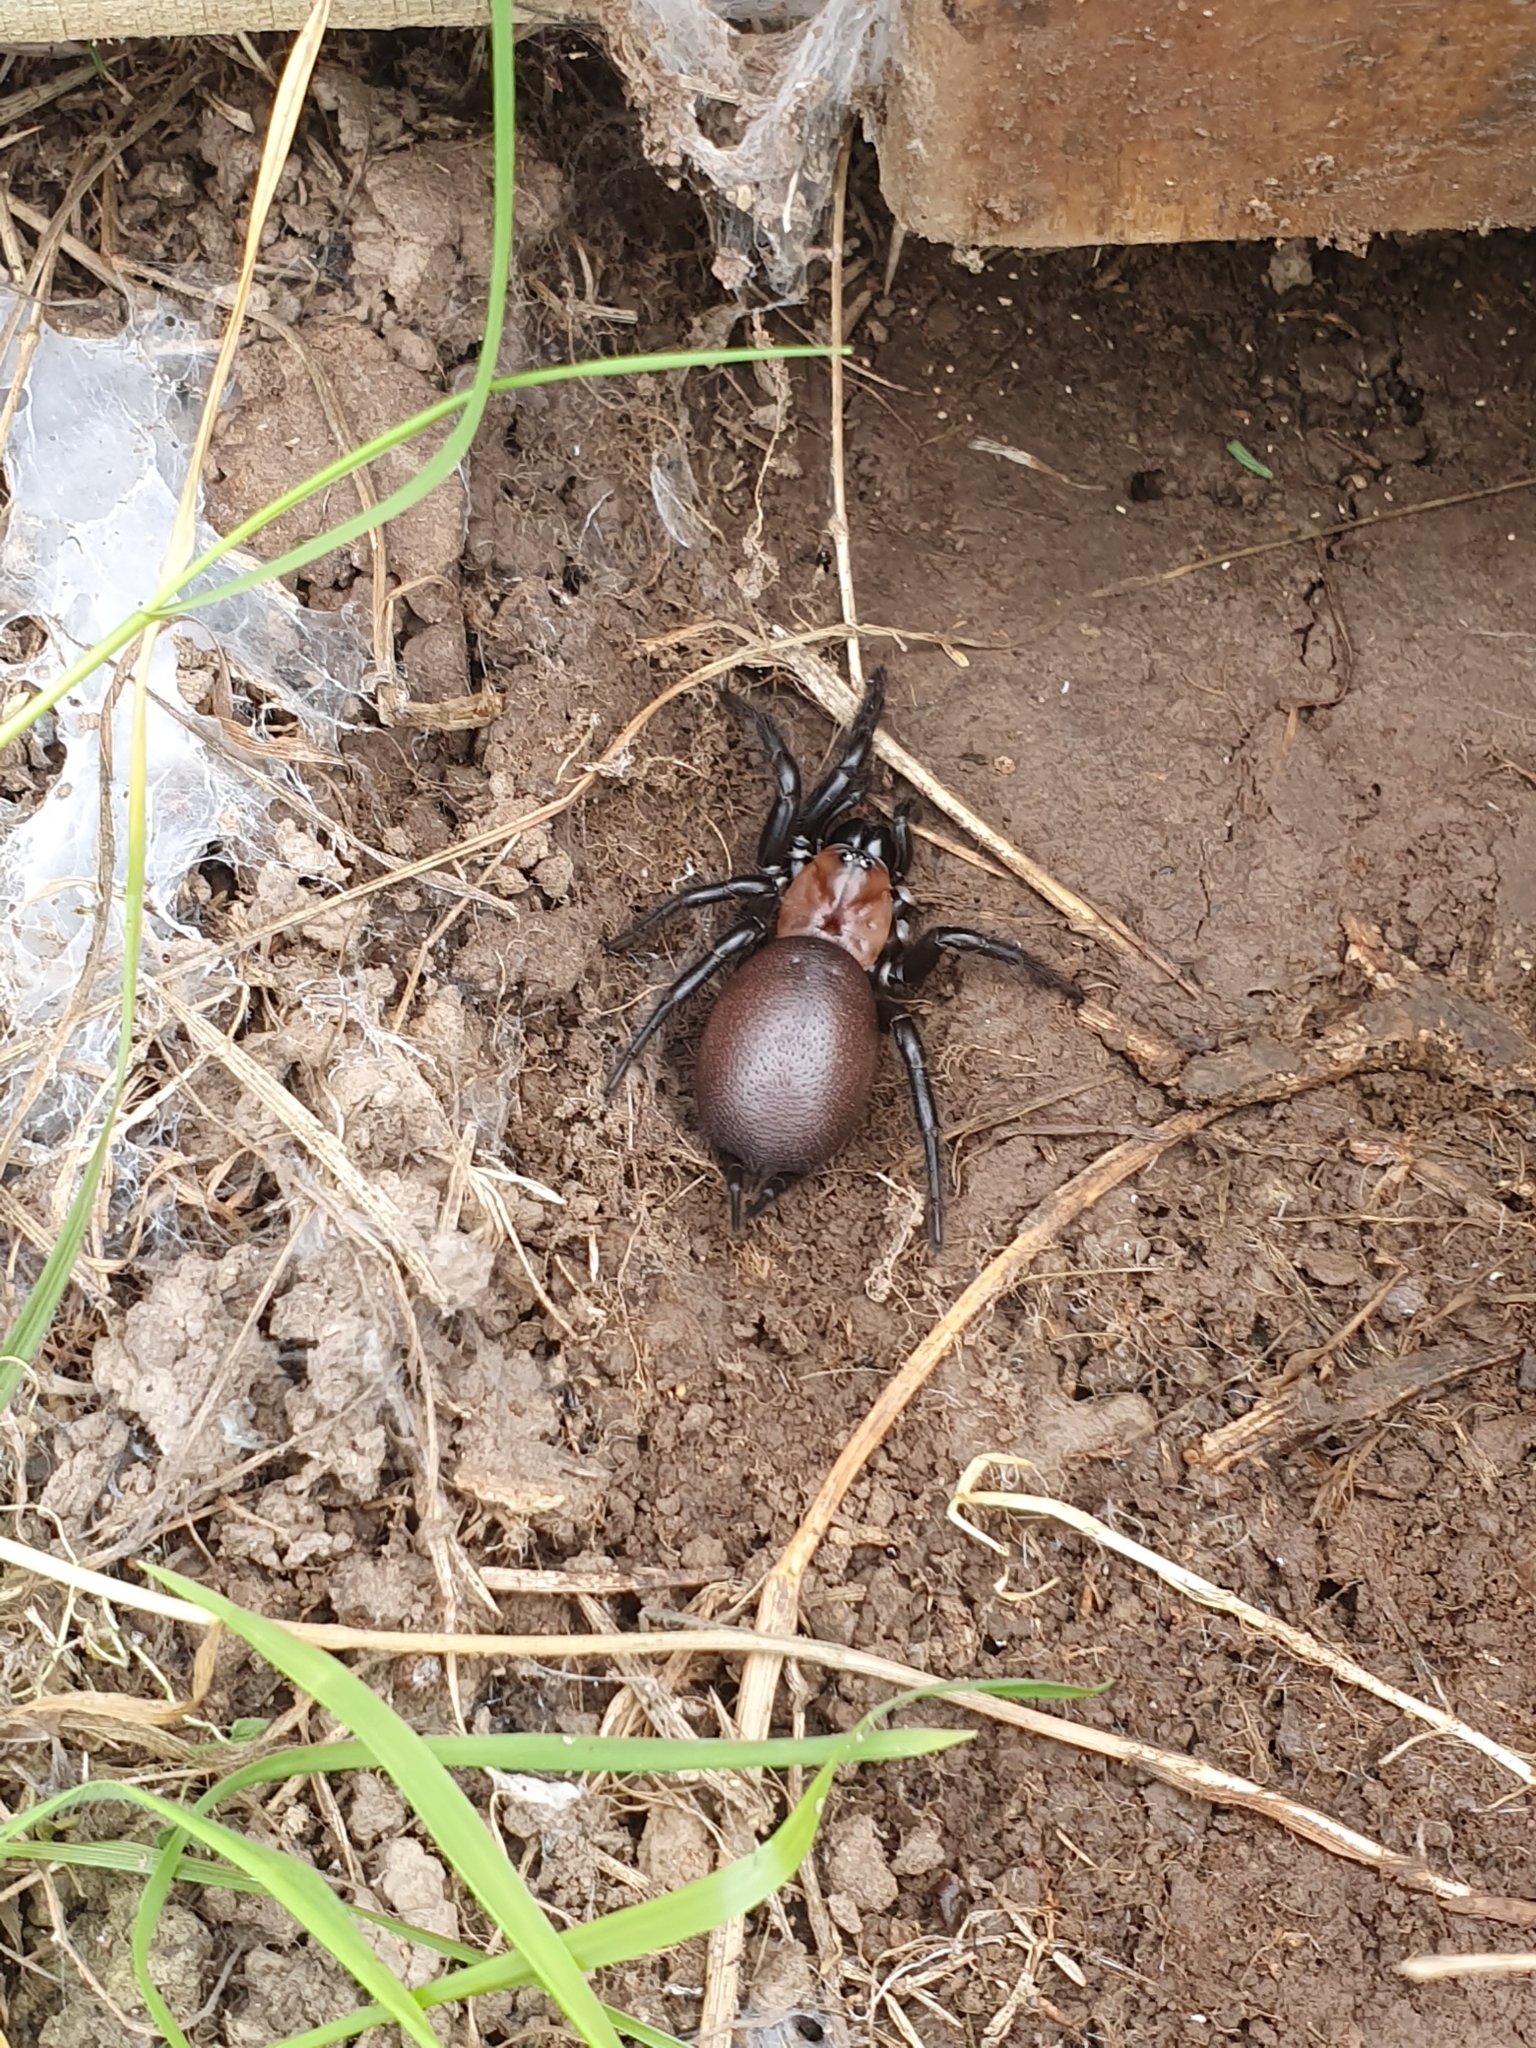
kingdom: Animalia
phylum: Arthropoda
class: Arachnida
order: Araneae
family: Porrhothelidae
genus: Porrhothele
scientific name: Porrhothele antipodiana
